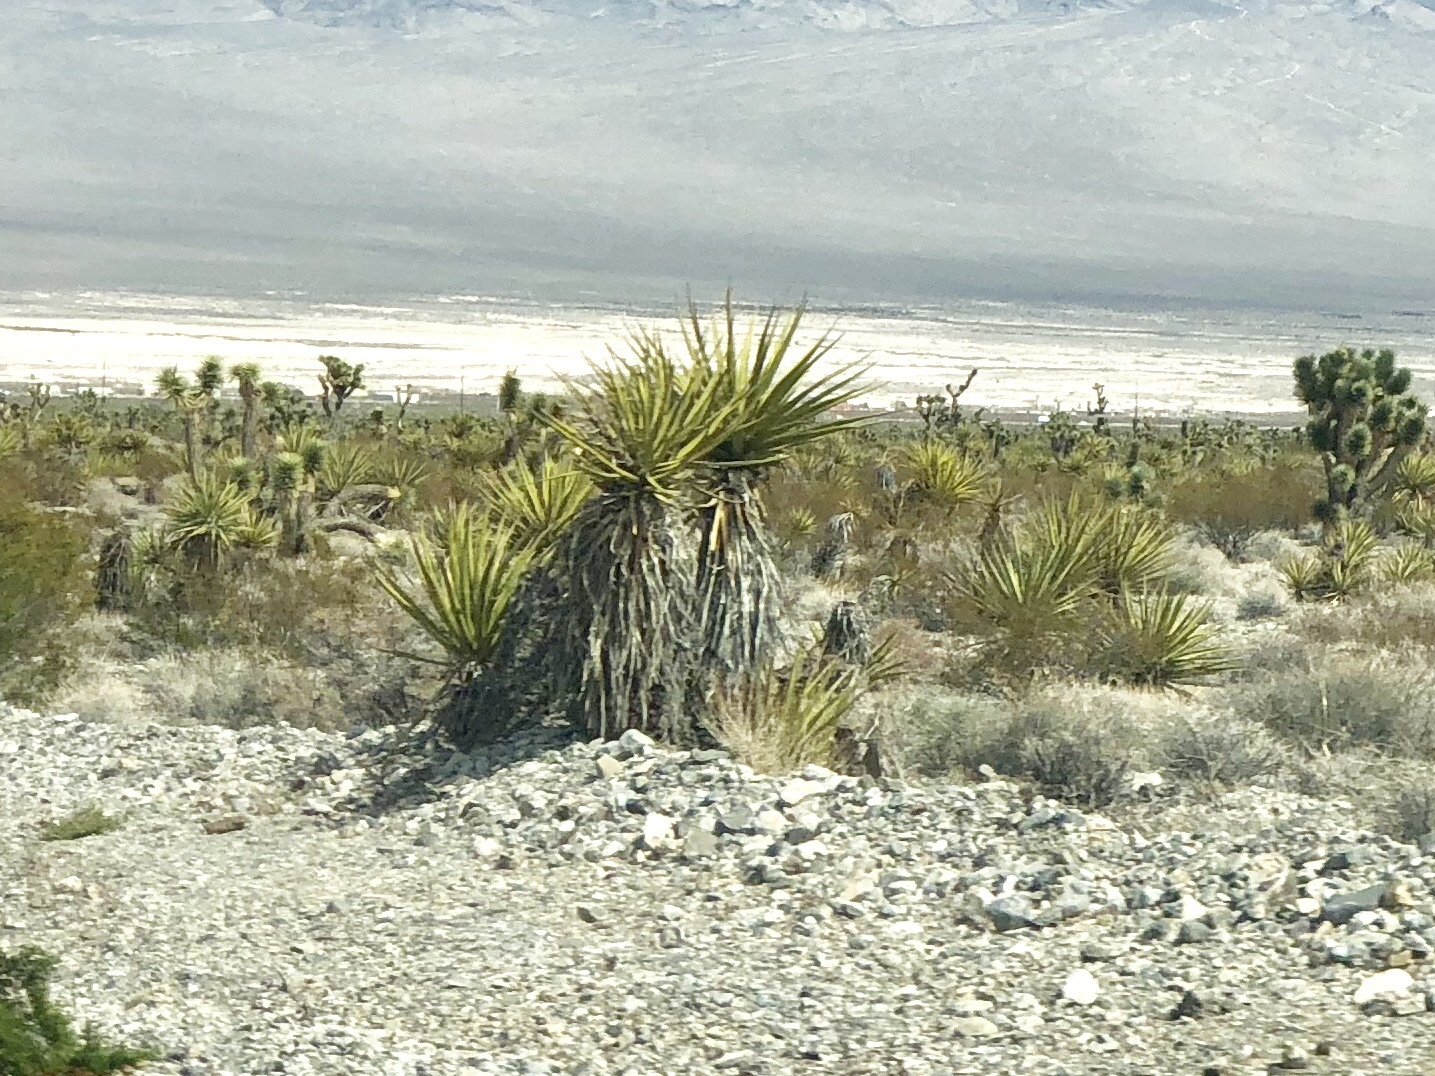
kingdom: Plantae
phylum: Tracheophyta
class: Liliopsida
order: Asparagales
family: Asparagaceae
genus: Yucca
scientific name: Yucca schidigera
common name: Mojave yucca
